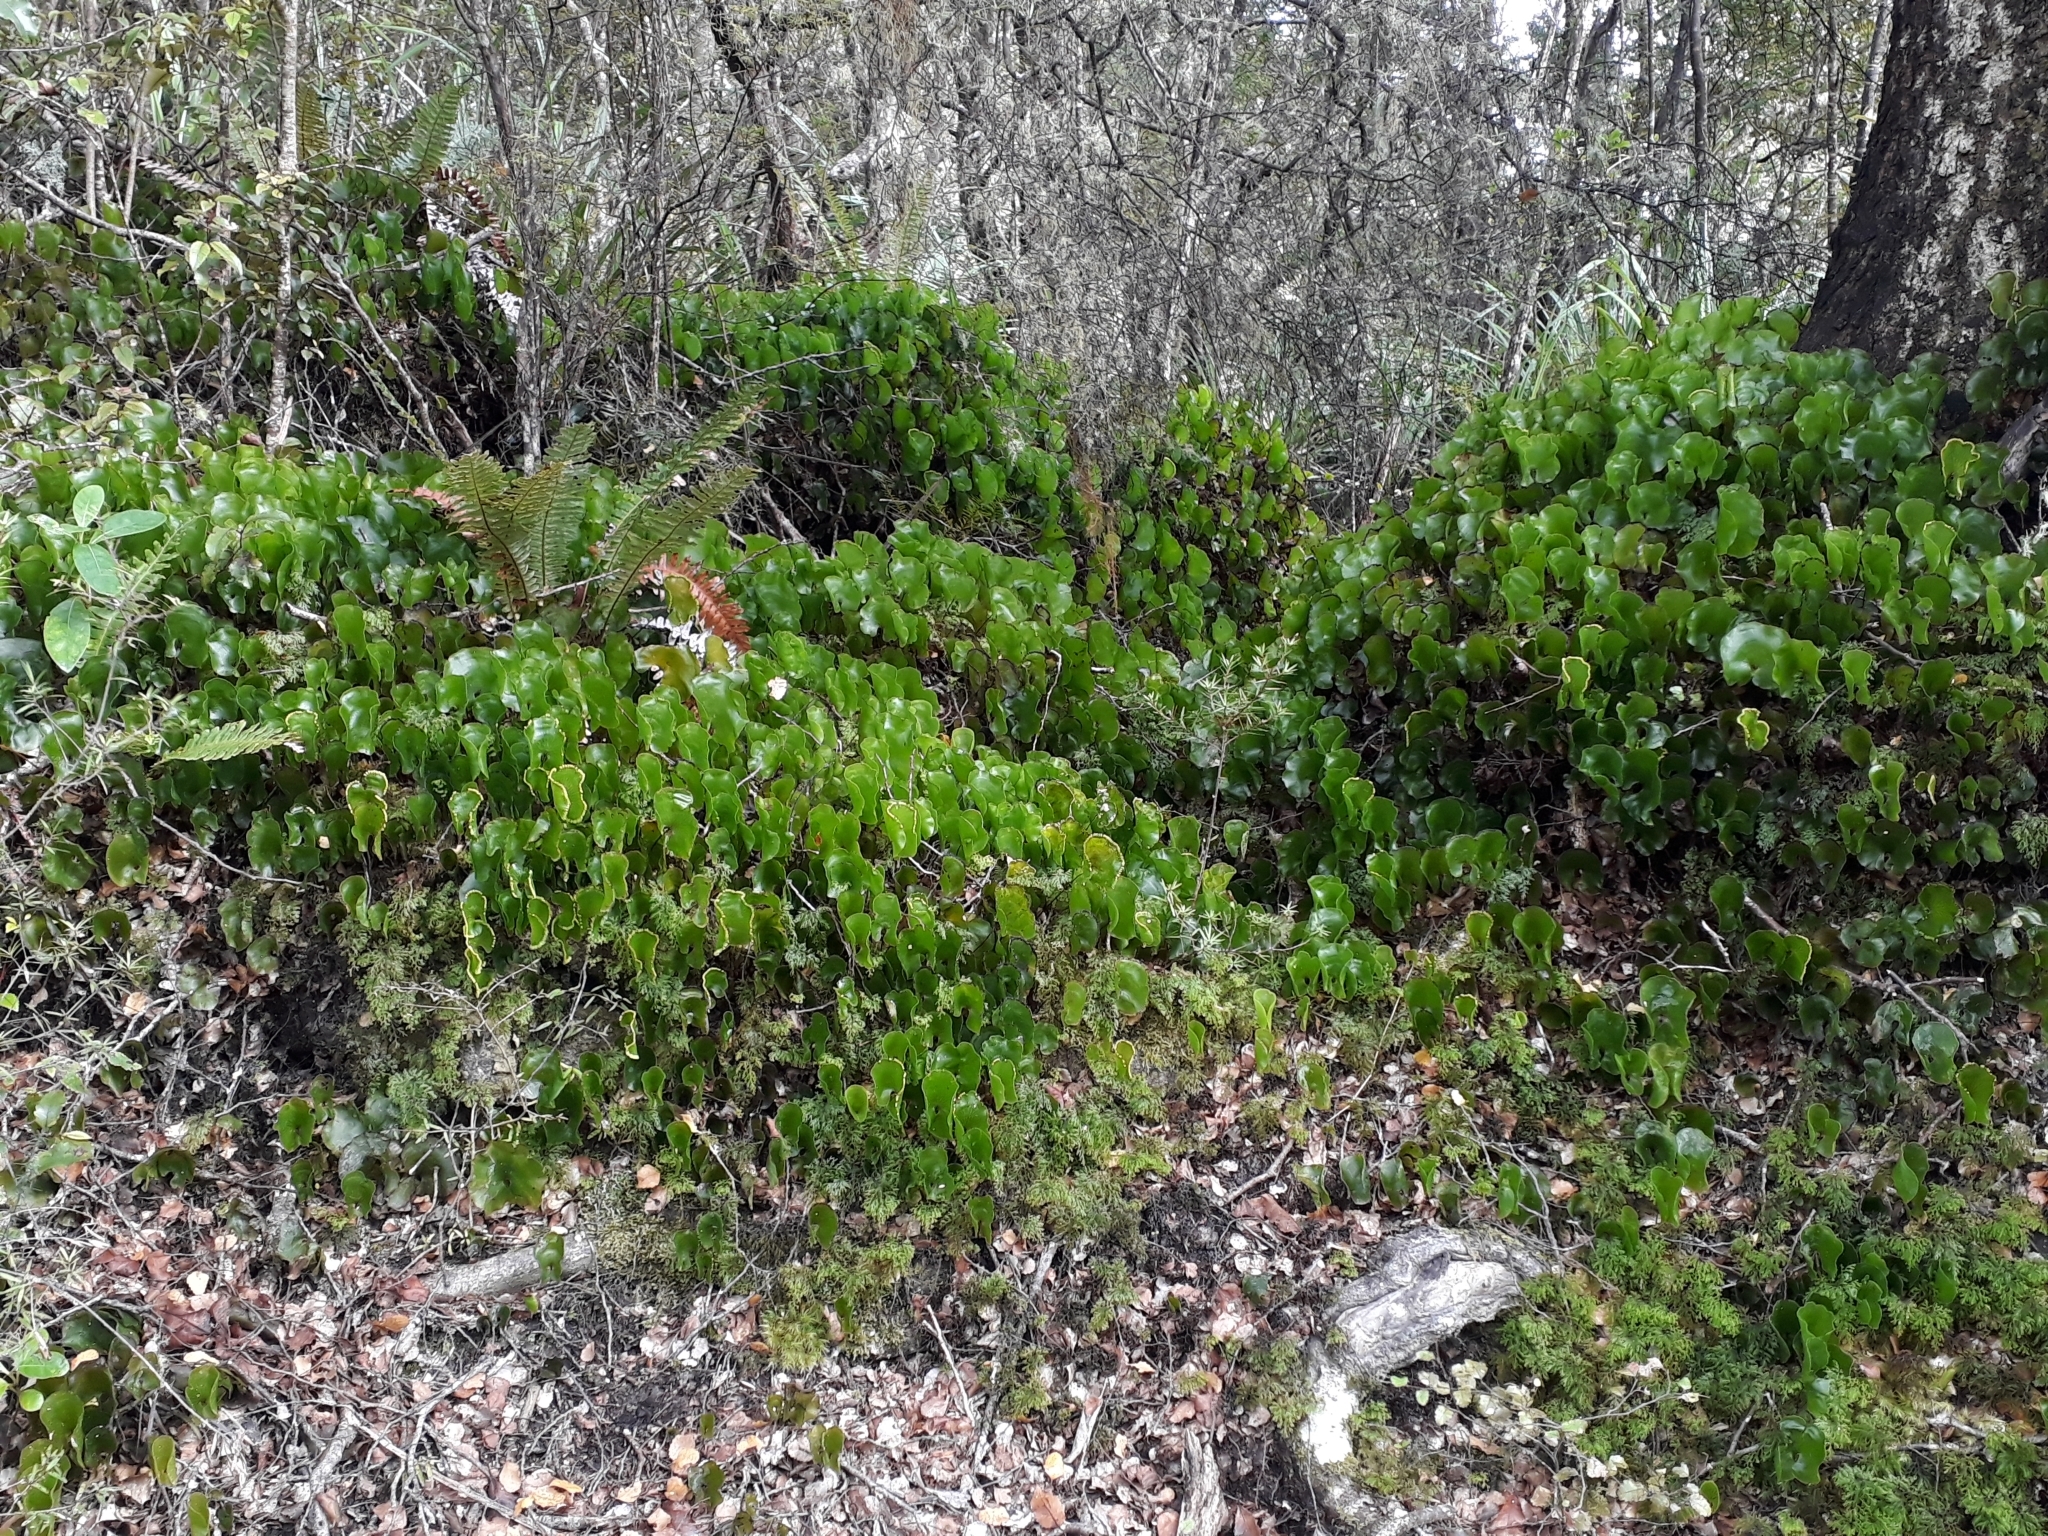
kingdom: Plantae
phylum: Tracheophyta
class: Polypodiopsida
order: Hymenophyllales
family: Hymenophyllaceae
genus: Hymenophyllum
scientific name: Hymenophyllum nephrophyllum
